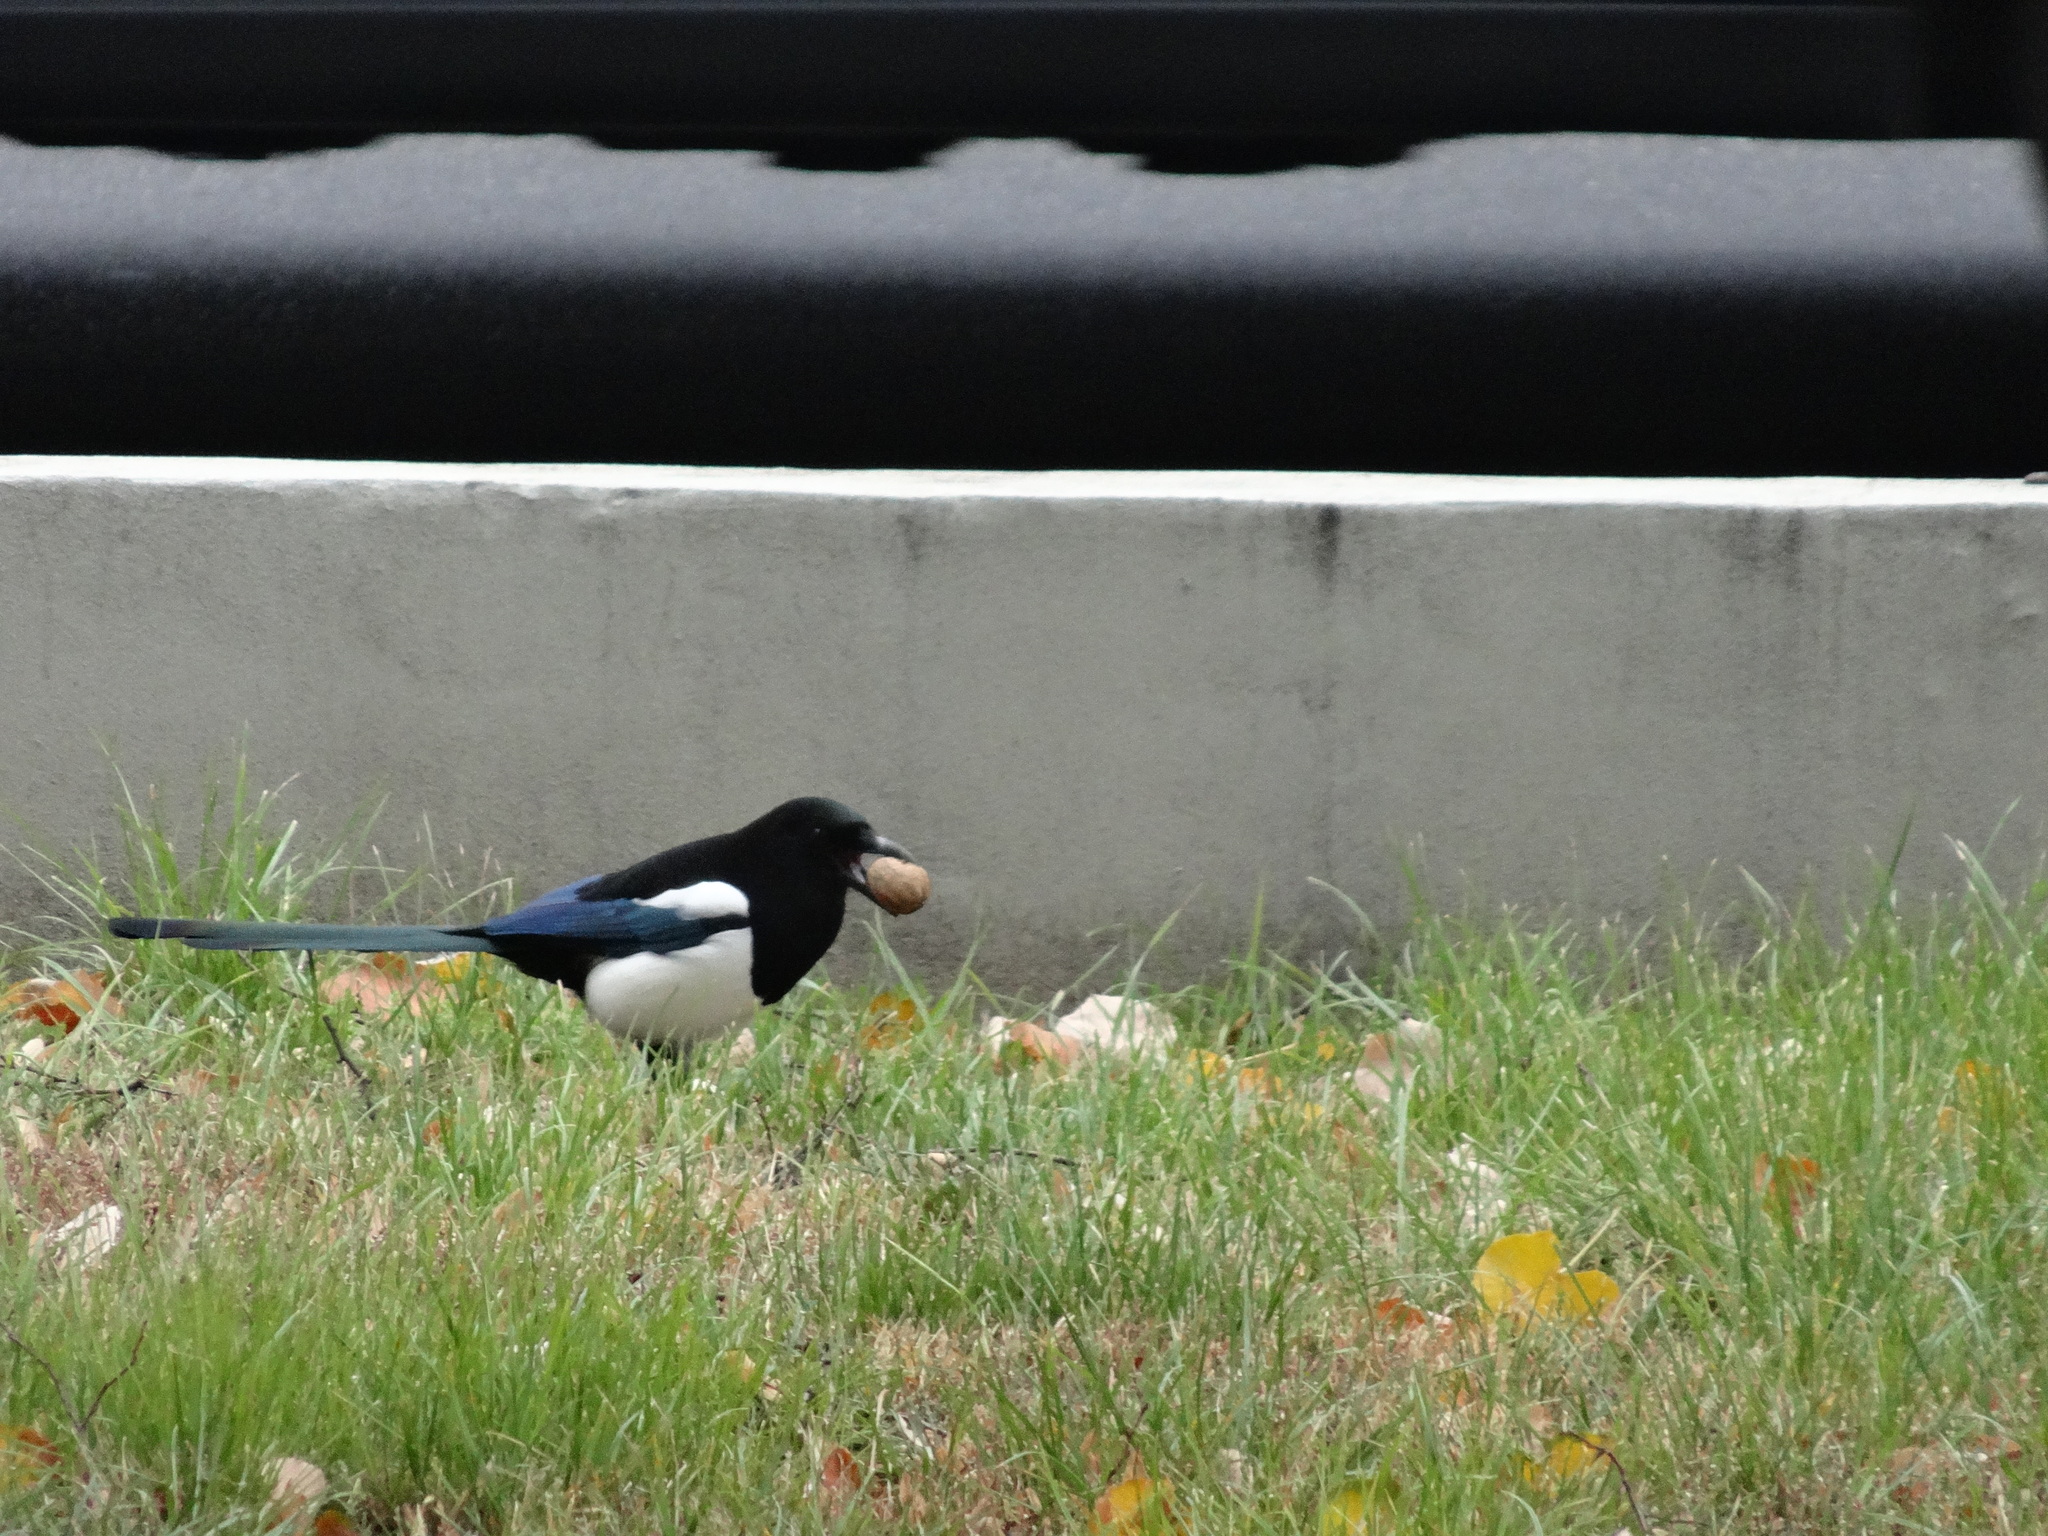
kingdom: Animalia
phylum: Chordata
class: Aves
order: Passeriformes
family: Corvidae
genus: Pica
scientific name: Pica pica
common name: Eurasian magpie
